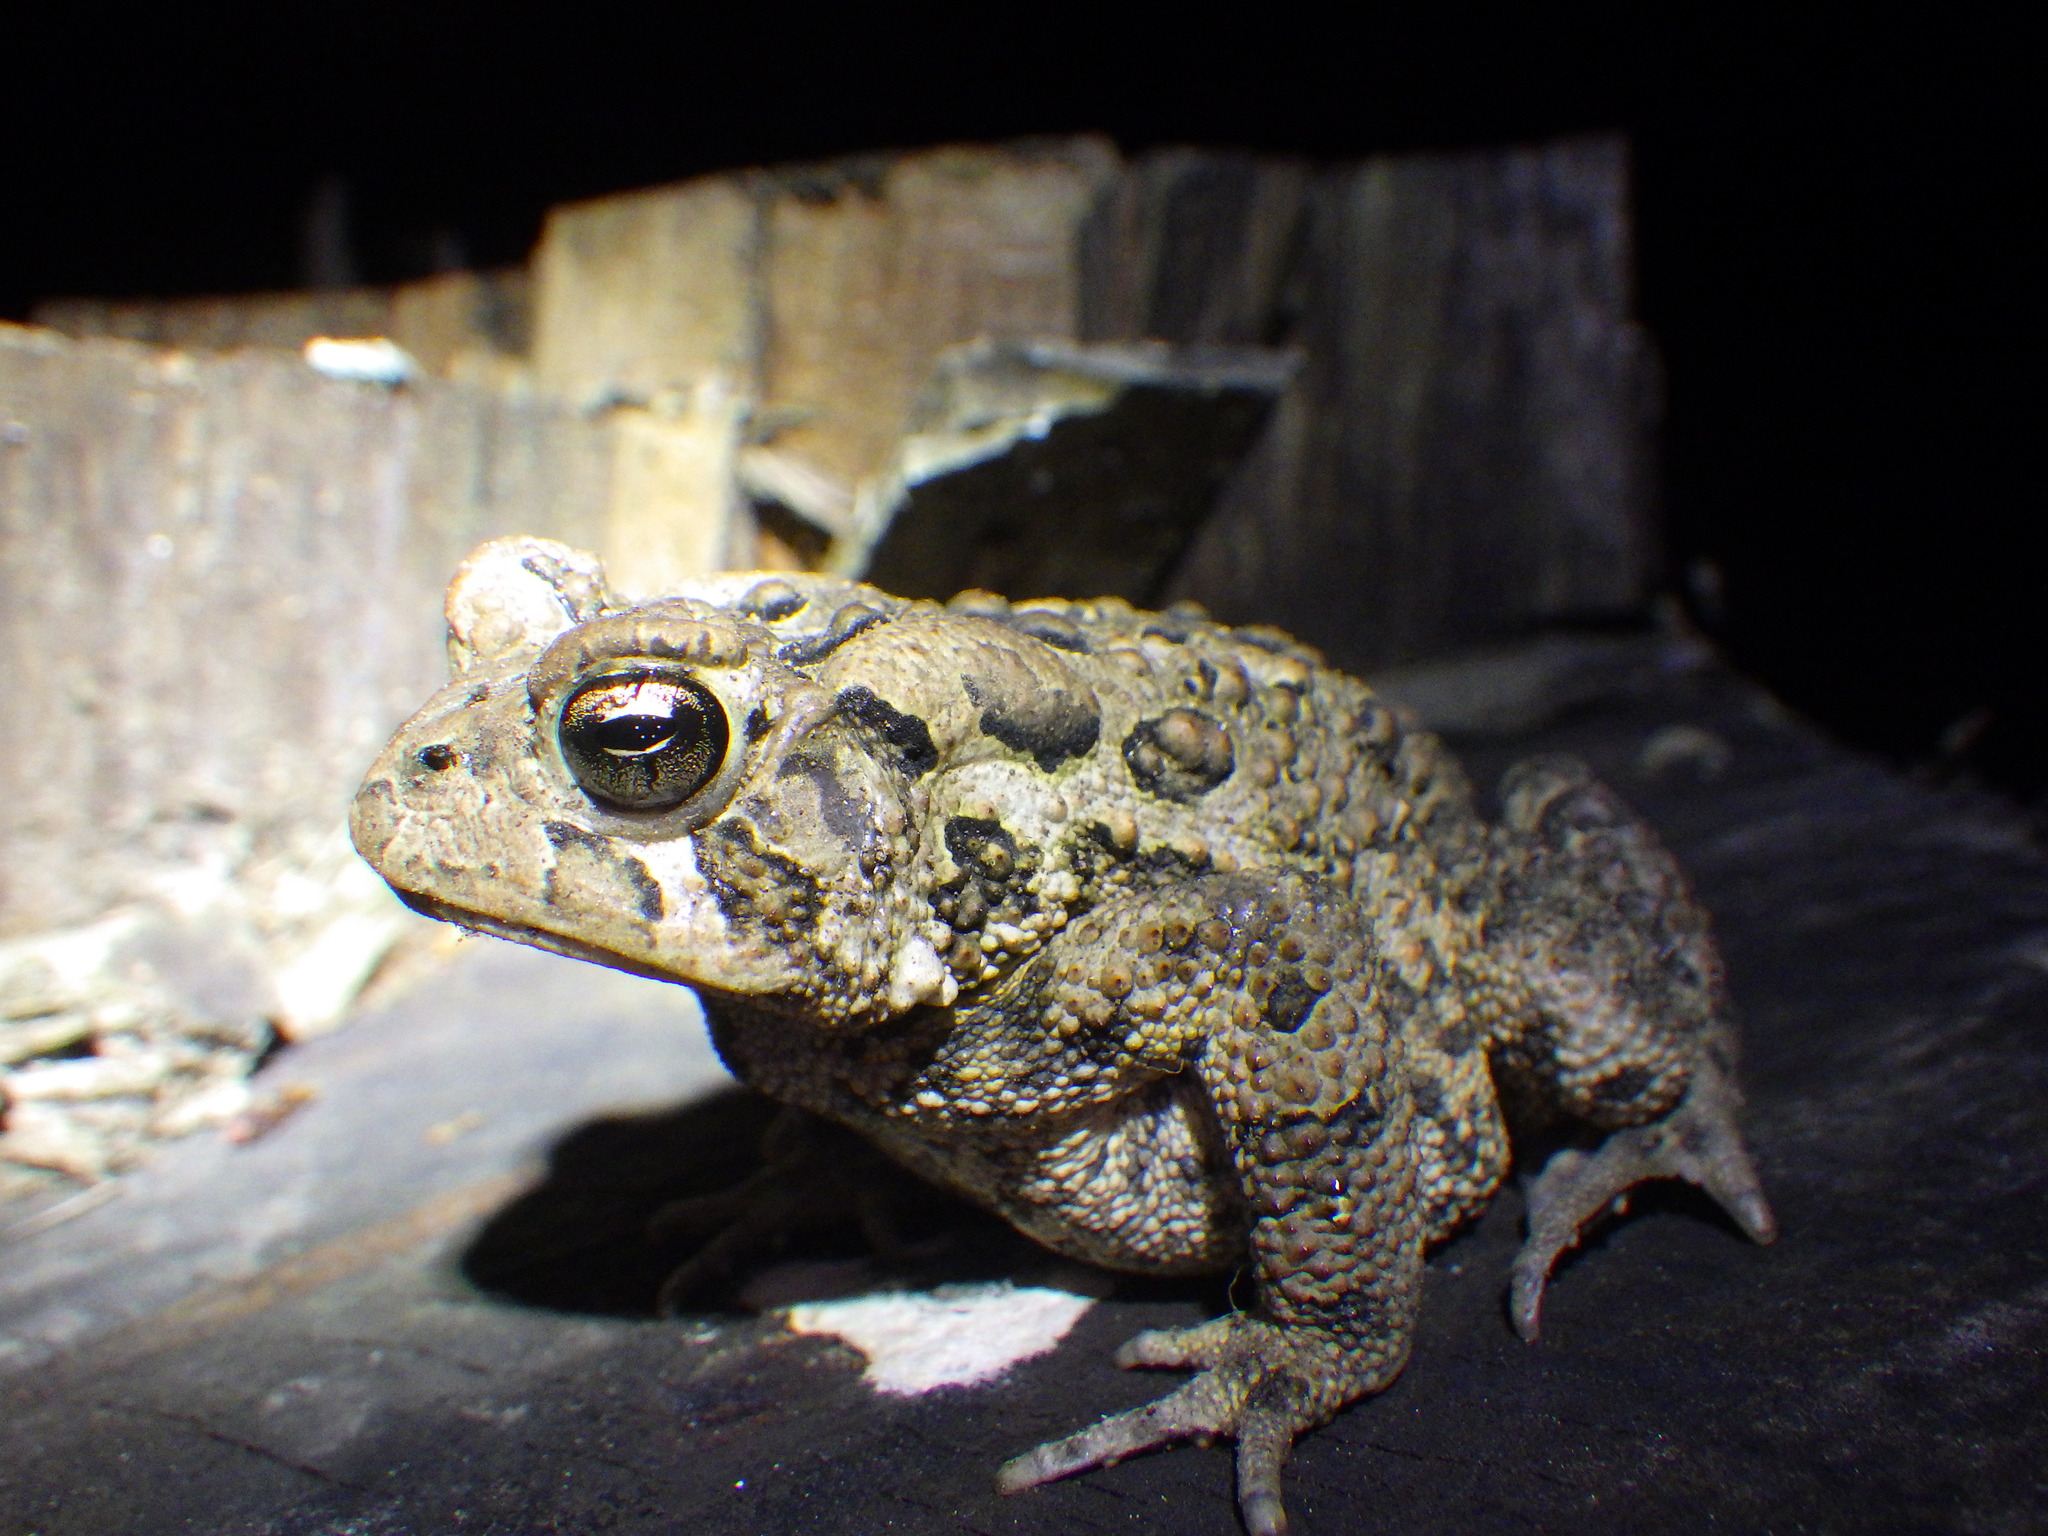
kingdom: Animalia
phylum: Chordata
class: Amphibia
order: Anura
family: Bufonidae
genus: Anaxyrus
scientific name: Anaxyrus americanus
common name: American toad
